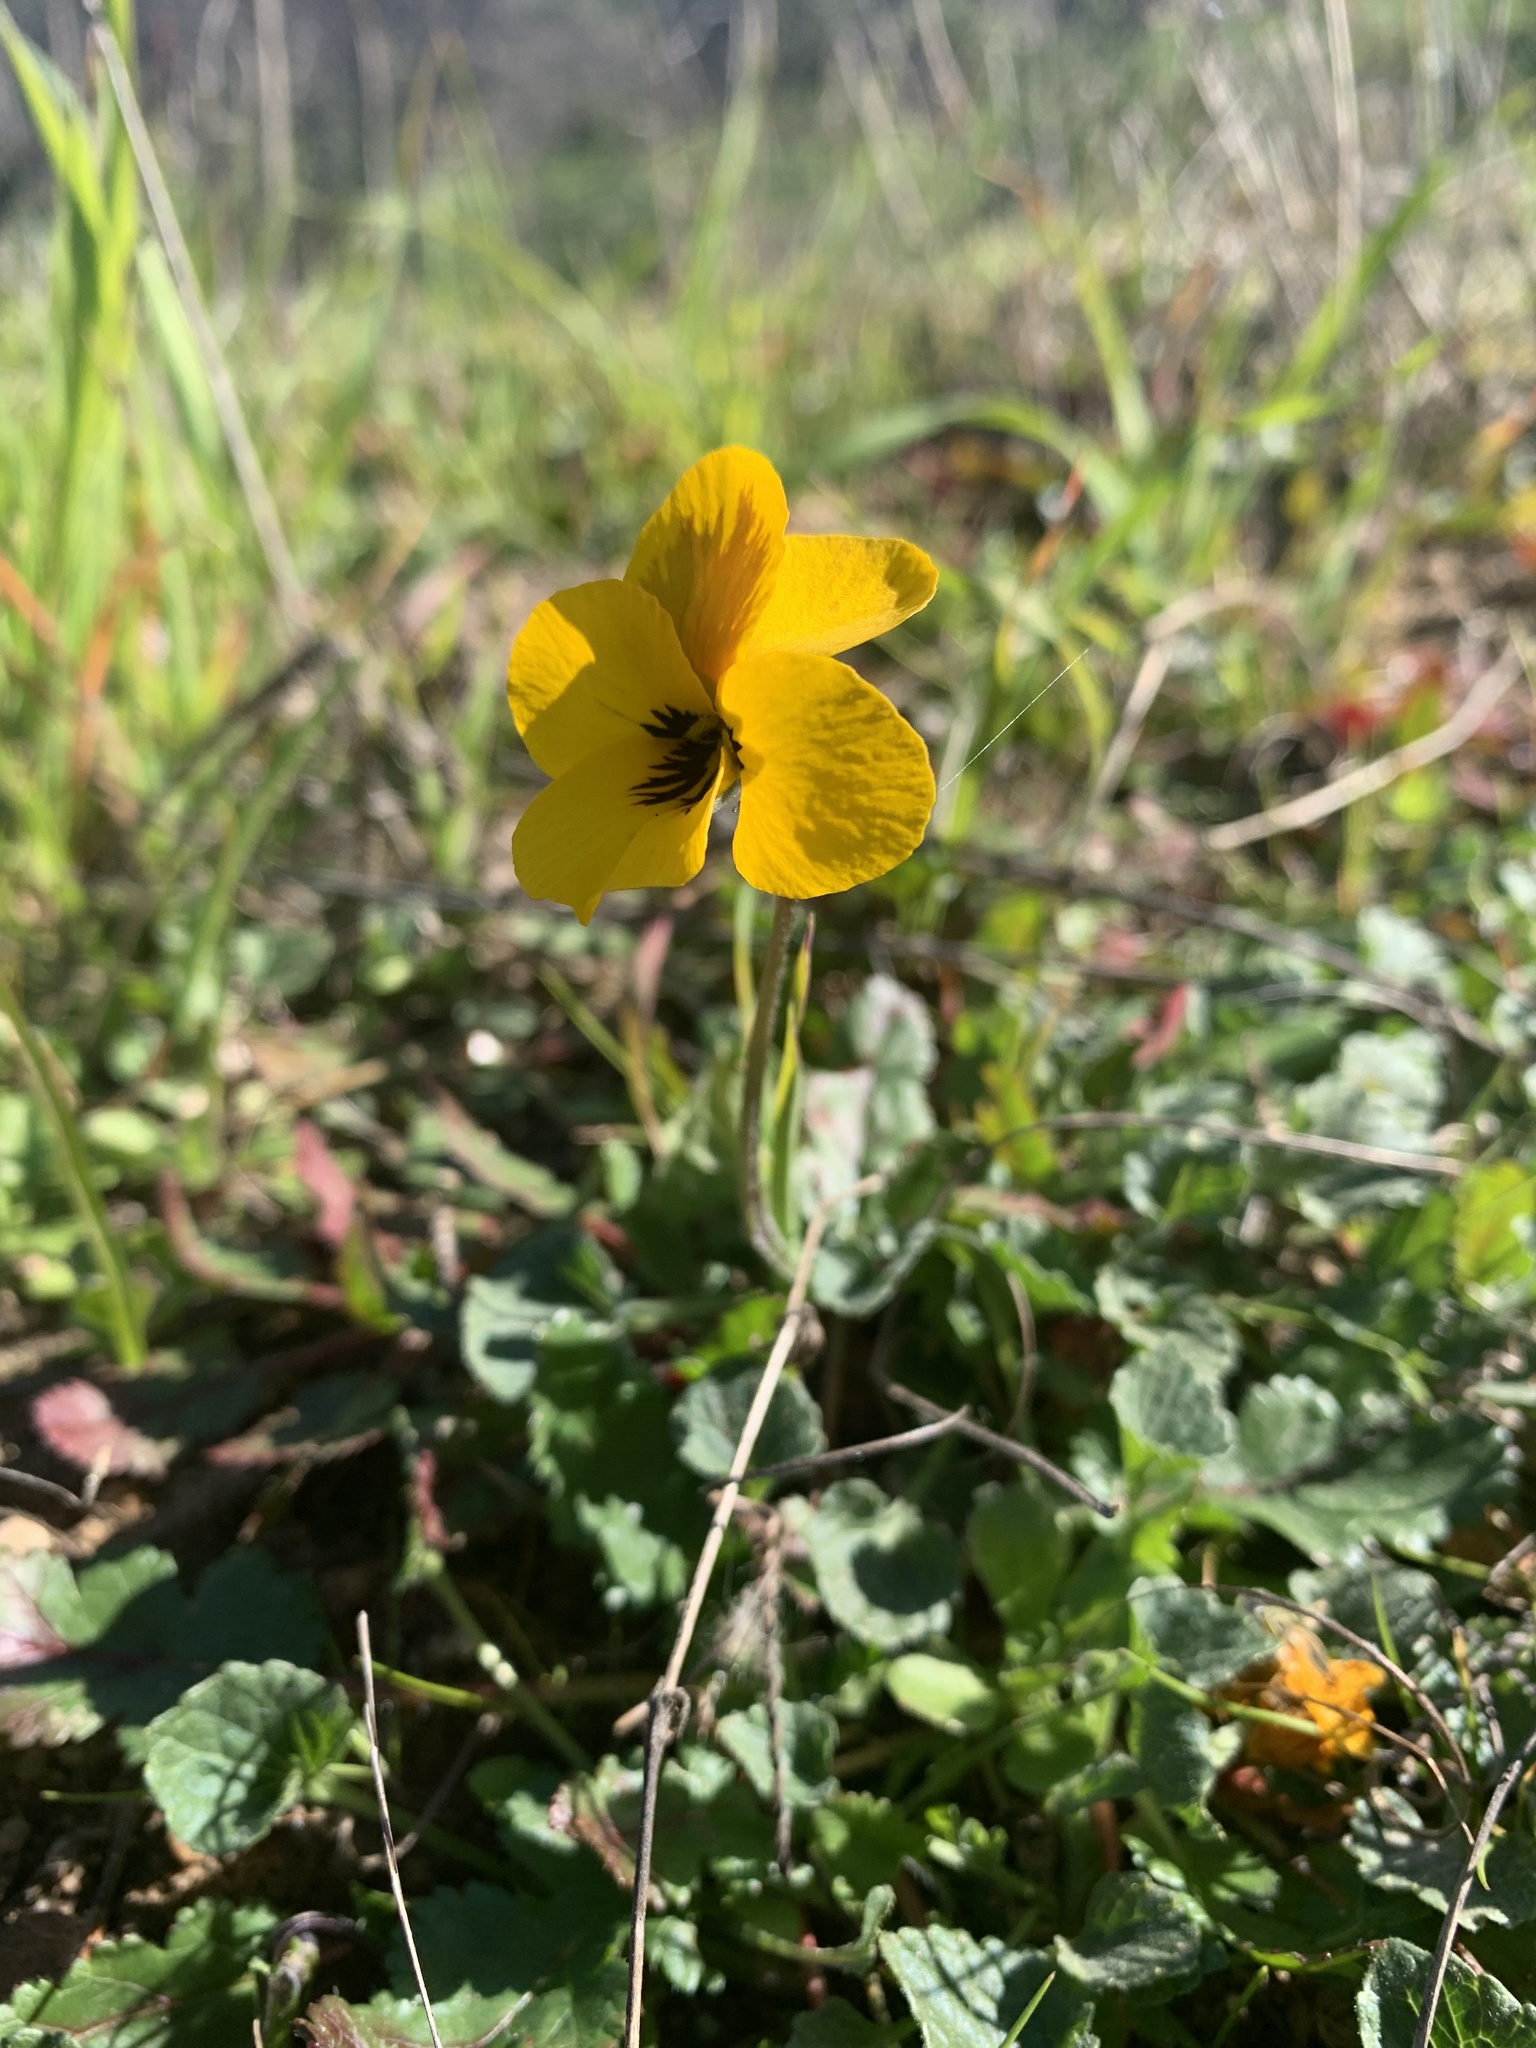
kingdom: Plantae
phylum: Tracheophyta
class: Magnoliopsida
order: Malpighiales
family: Violaceae
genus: Viola
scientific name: Viola pedunculata
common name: California golden violet
